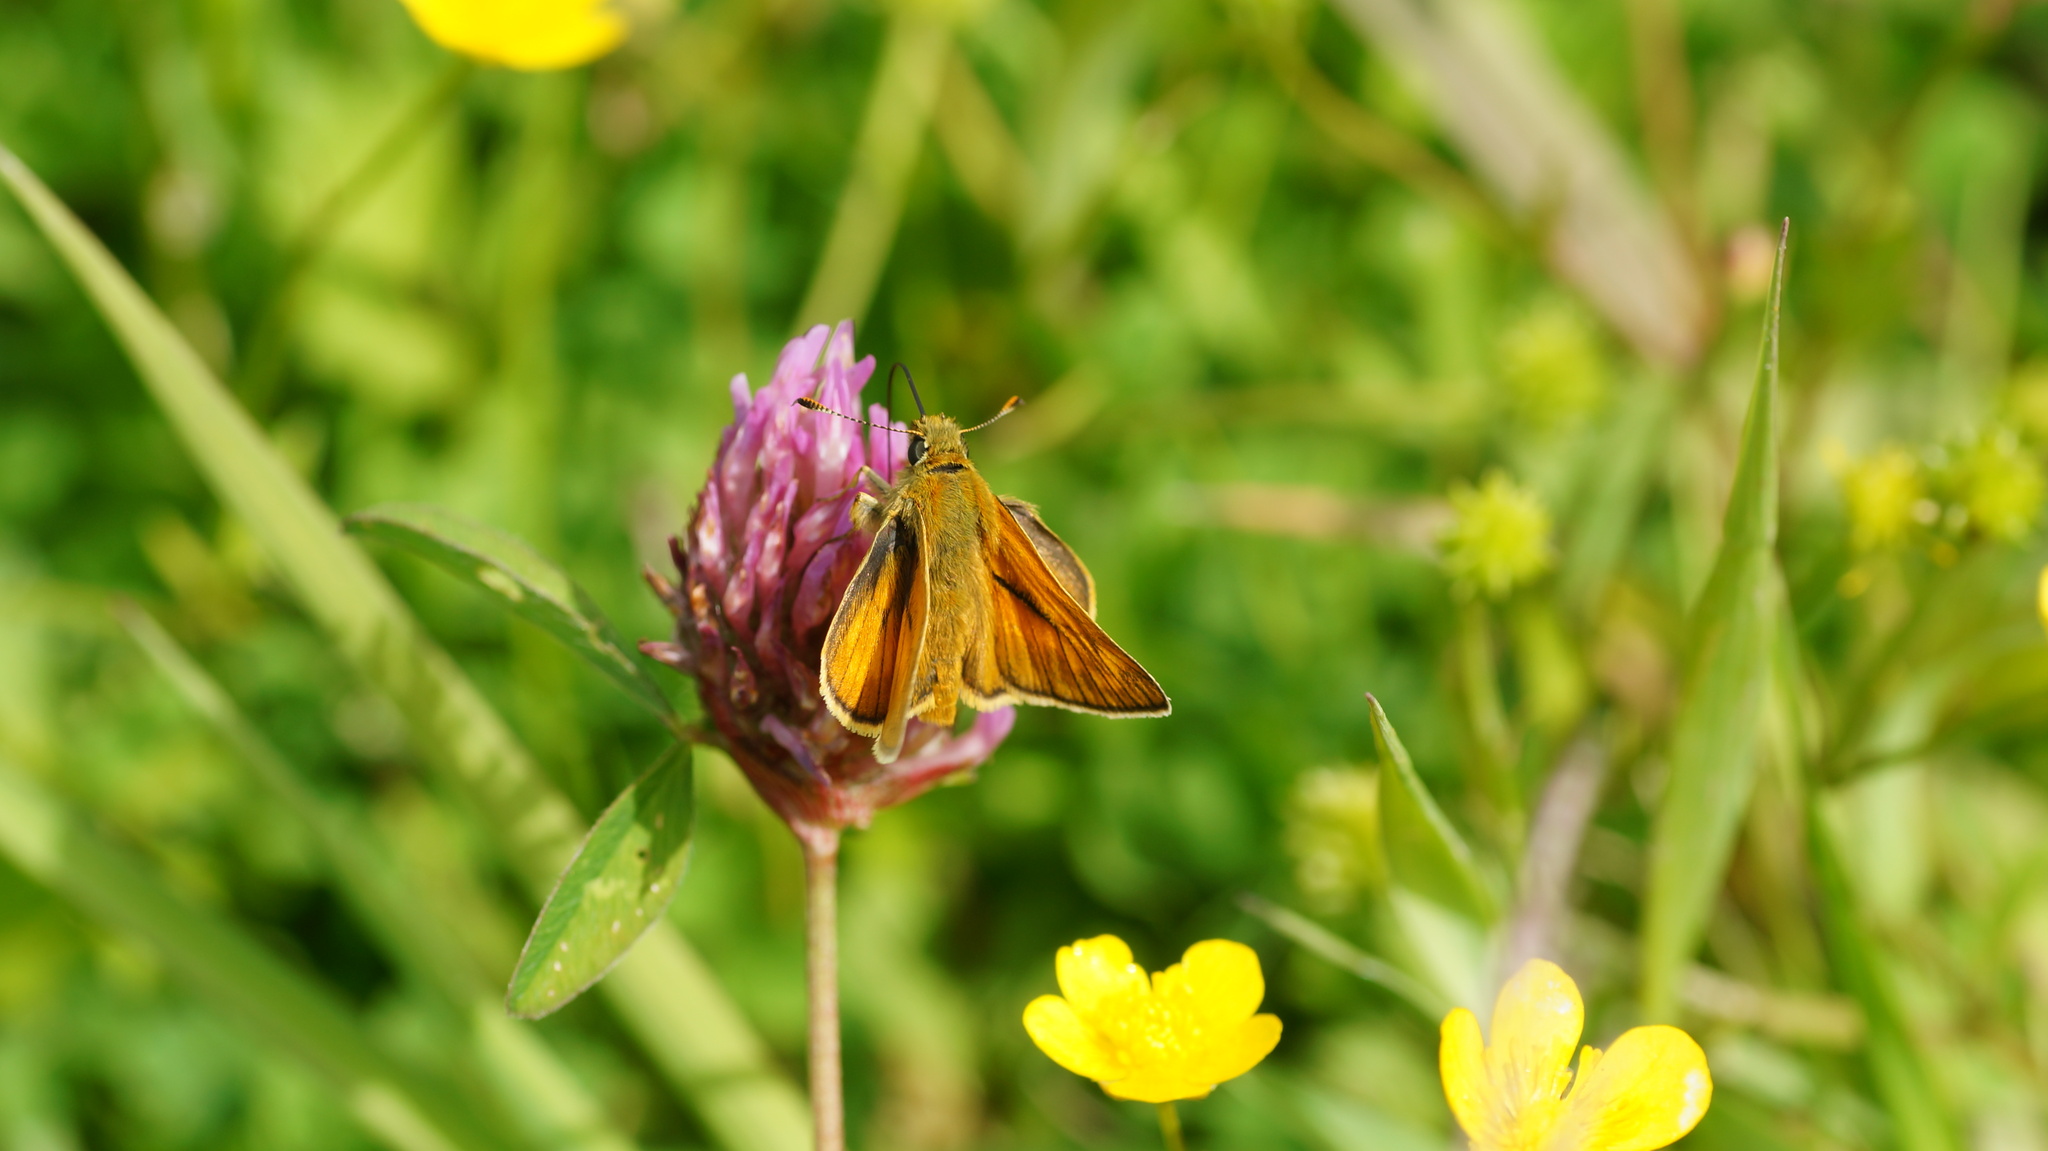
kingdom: Animalia
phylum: Arthropoda
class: Insecta
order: Lepidoptera
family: Hesperiidae
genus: Ochlodes
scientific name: Ochlodes venata
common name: Large skipper
